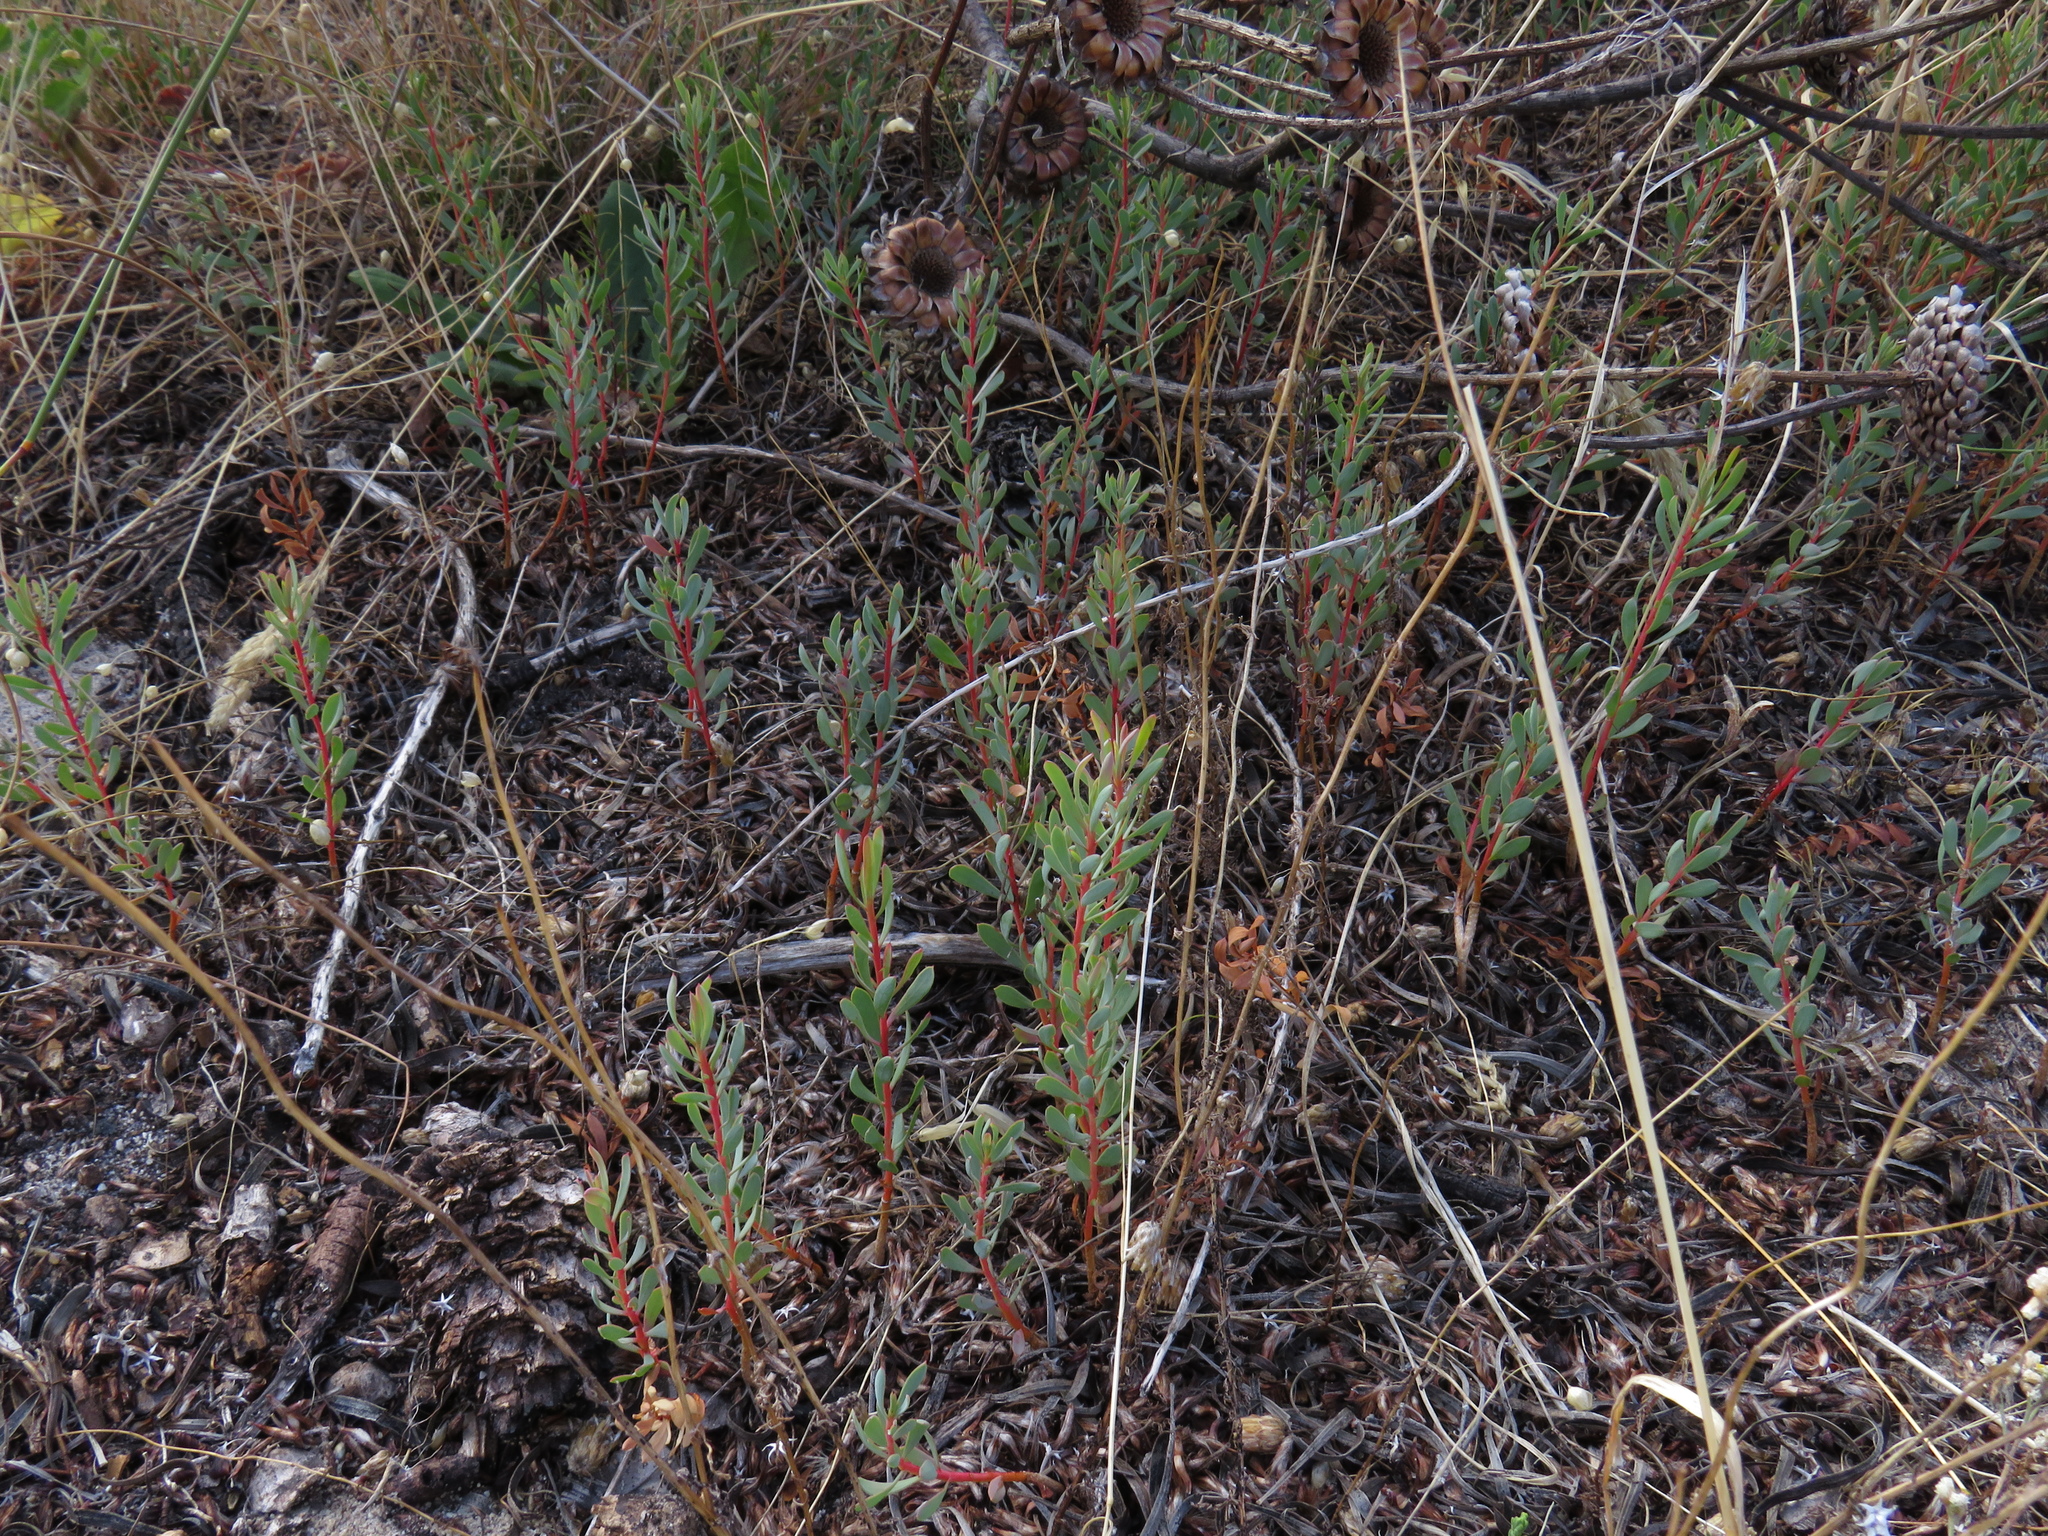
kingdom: Plantae
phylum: Tracheophyta
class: Magnoliopsida
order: Proteales
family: Proteaceae
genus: Protea
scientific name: Protea scolymocephala
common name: Thistle sugarbush
